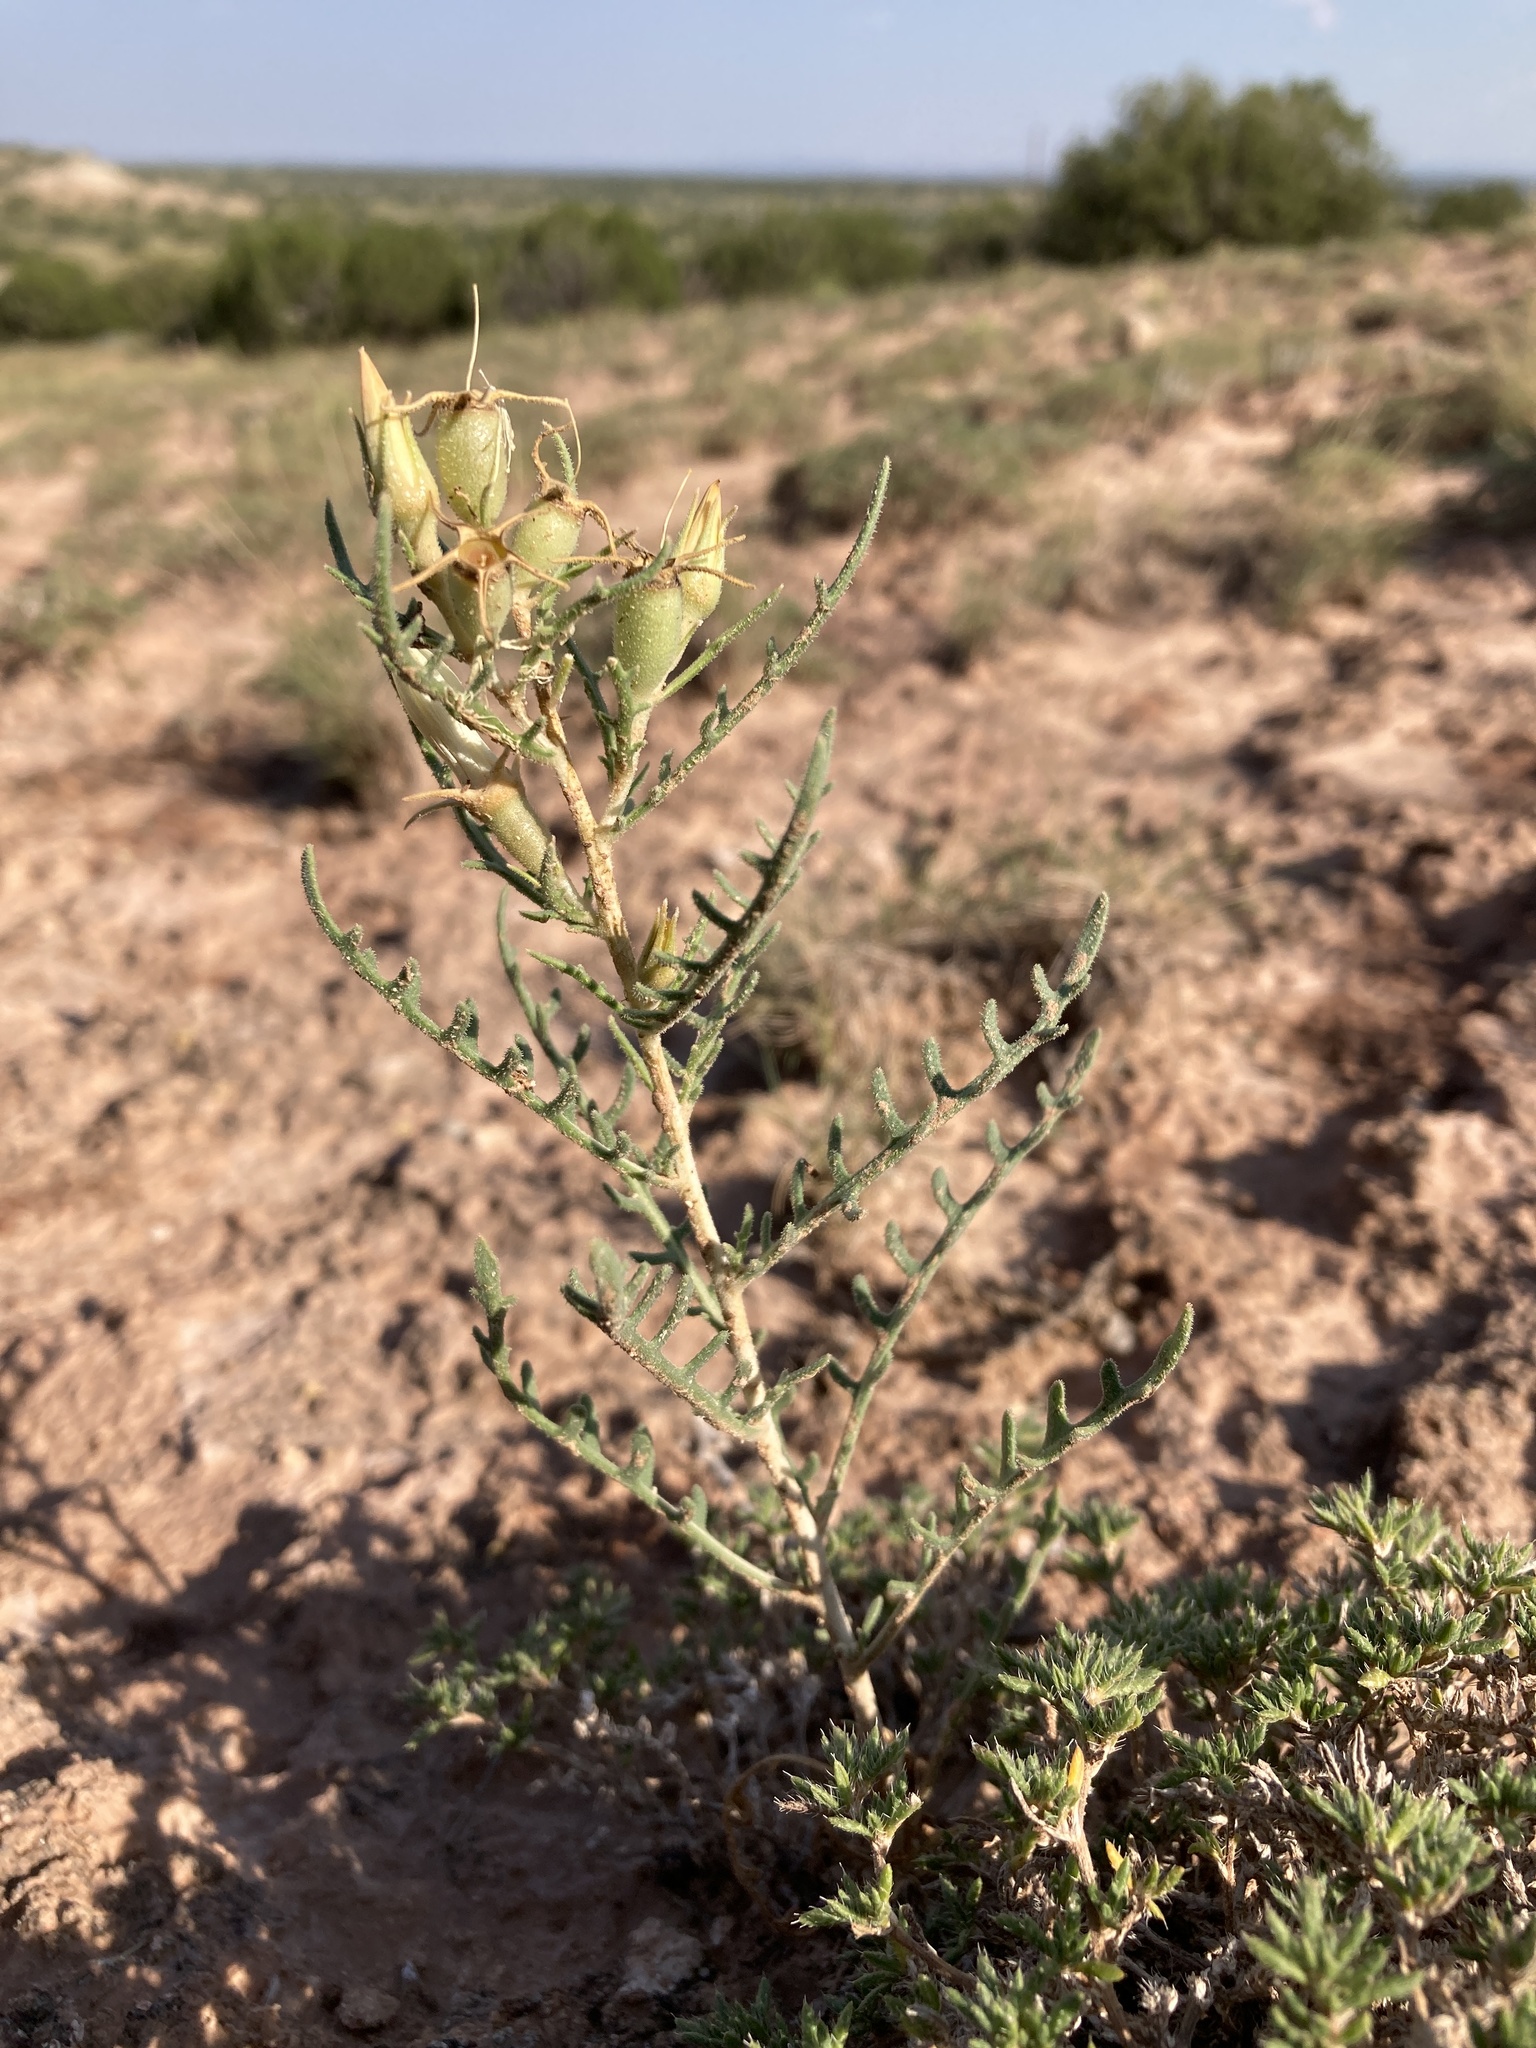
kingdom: Plantae
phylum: Tracheophyta
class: Magnoliopsida
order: Cornales
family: Loasaceae
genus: Mentzelia
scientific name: Mentzelia humilis
